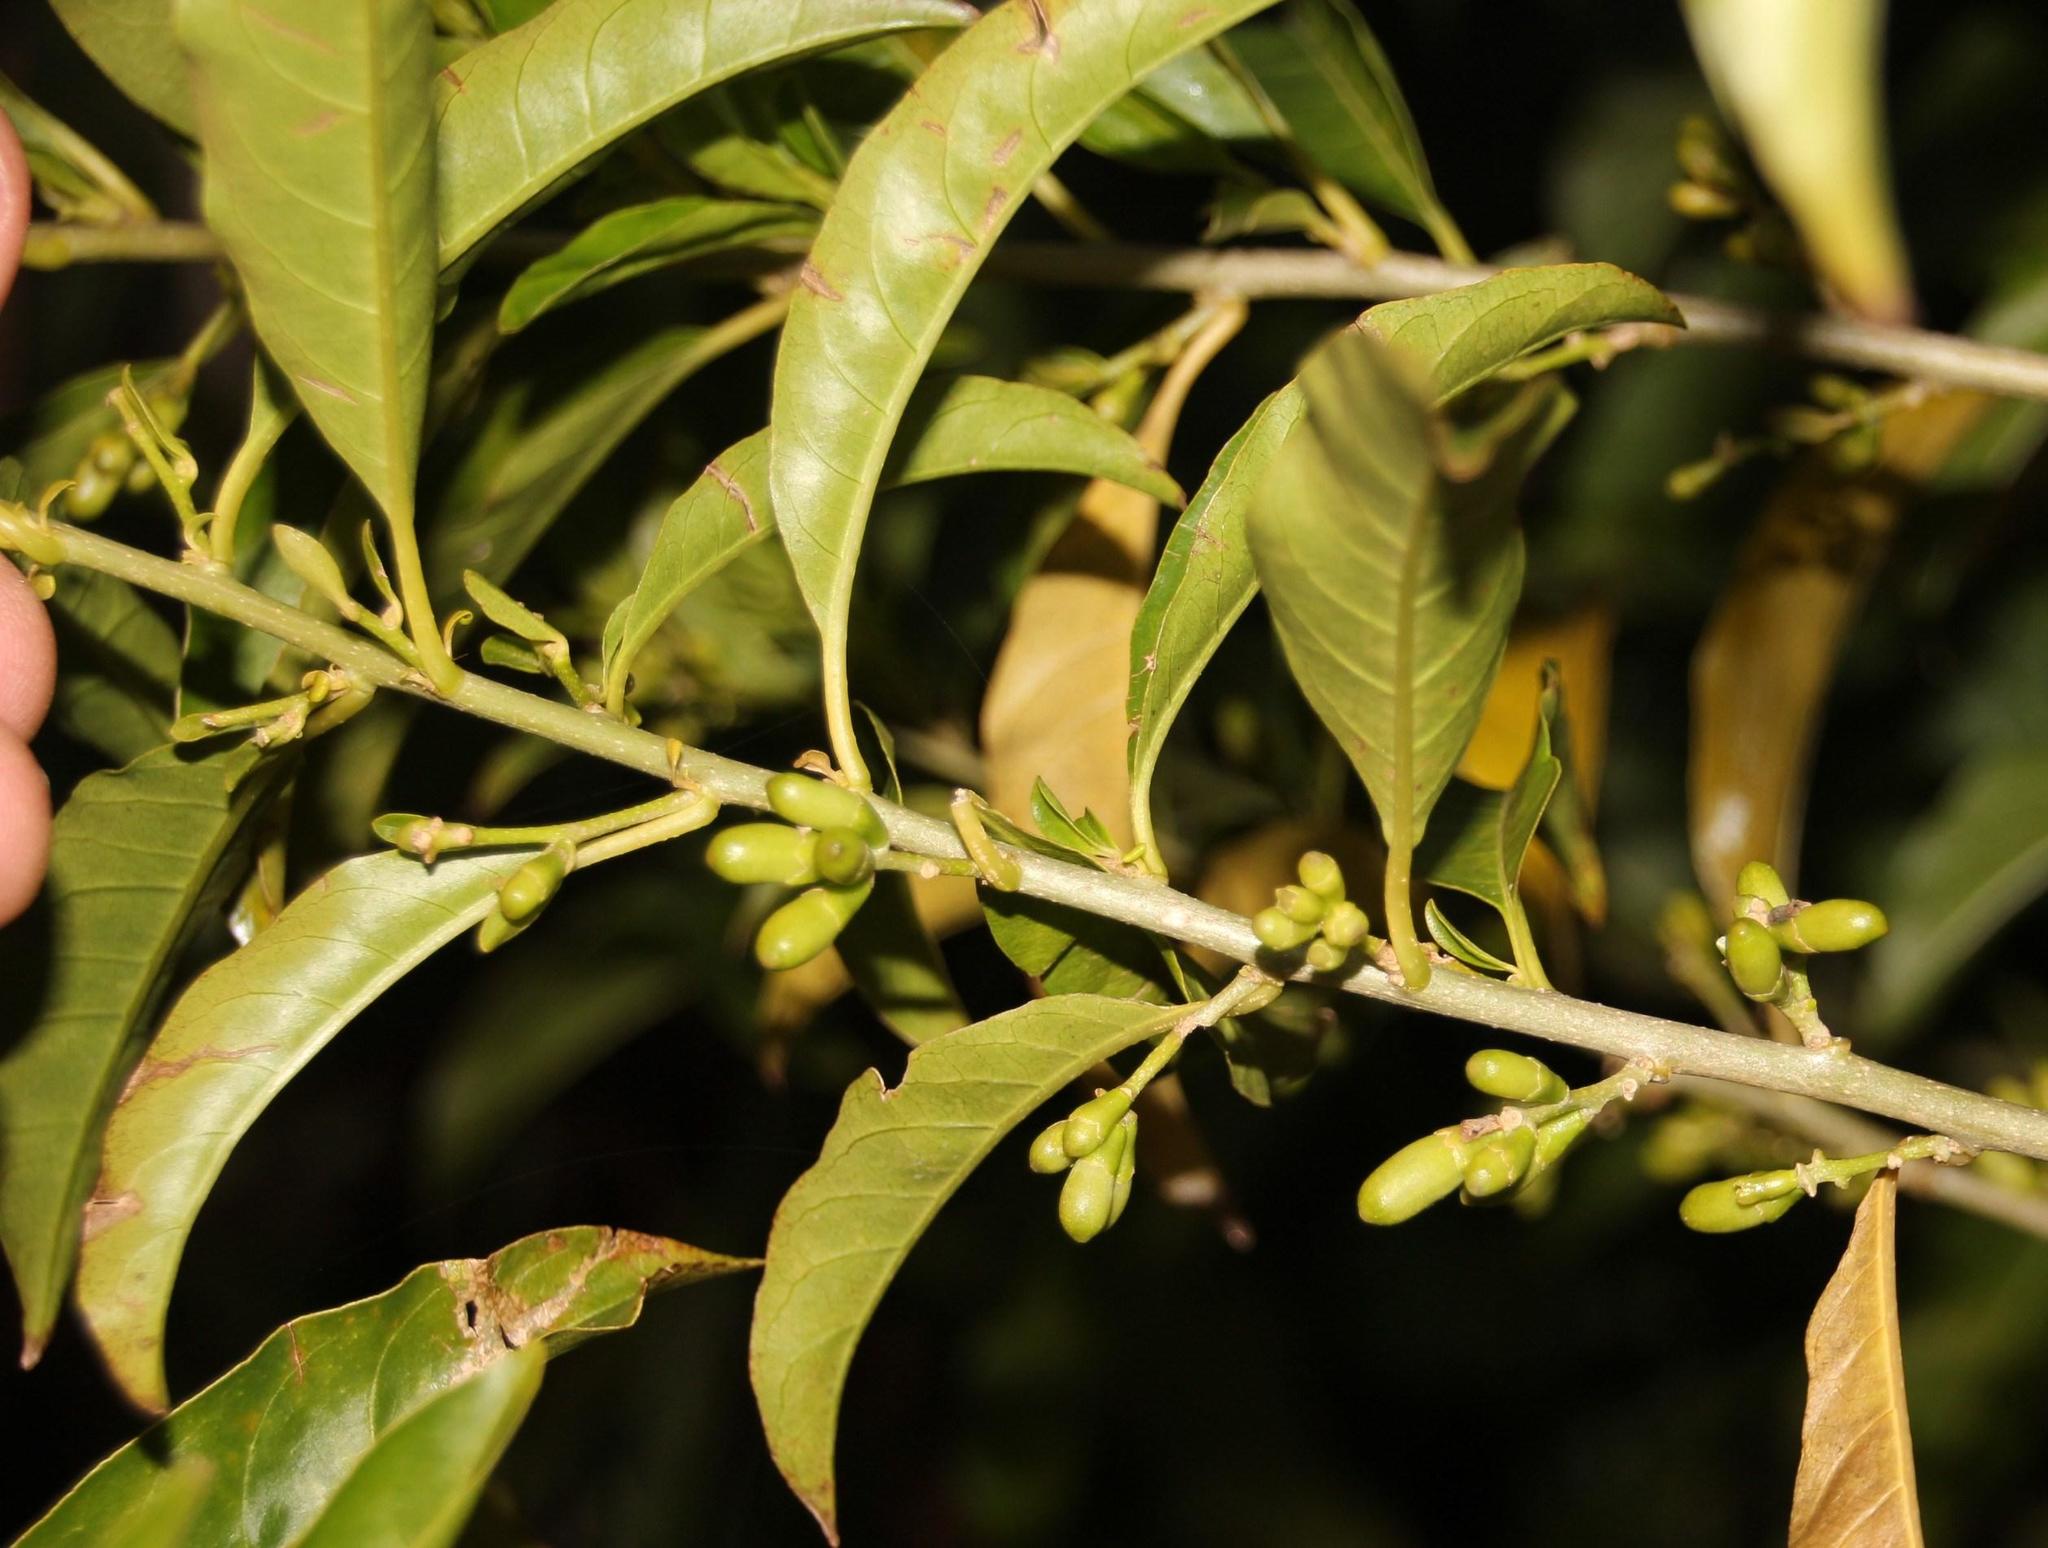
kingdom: Plantae
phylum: Tracheophyta
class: Magnoliopsida
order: Solanales
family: Solanaceae
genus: Cestrum
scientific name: Cestrum laevigatum
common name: Inkberry
